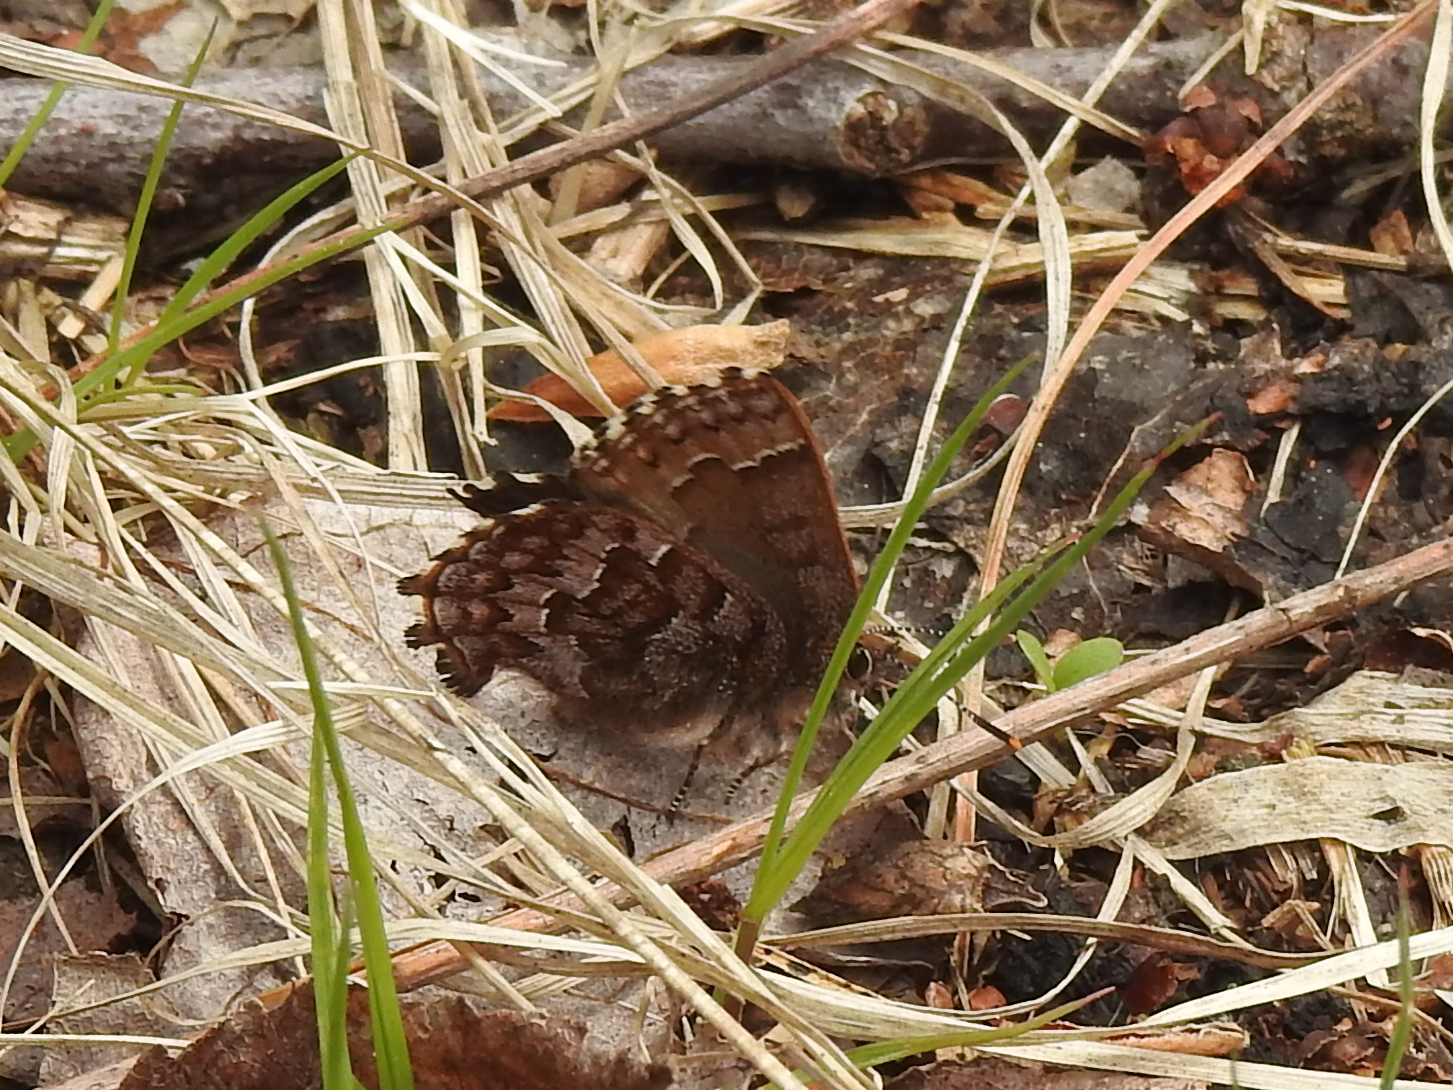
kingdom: Animalia
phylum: Arthropoda
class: Insecta
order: Lepidoptera
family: Lycaenidae
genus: Incisalia
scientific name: Incisalia niphon
